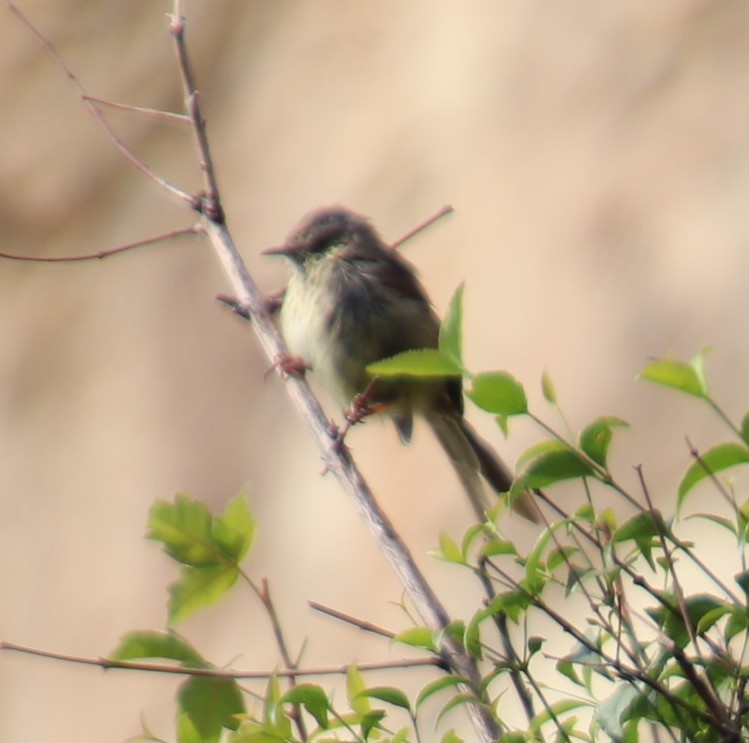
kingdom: Animalia
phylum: Chordata
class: Aves
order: Passeriformes
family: Cisticolidae
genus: Prinia
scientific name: Prinia maculosa
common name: Karoo prinia
